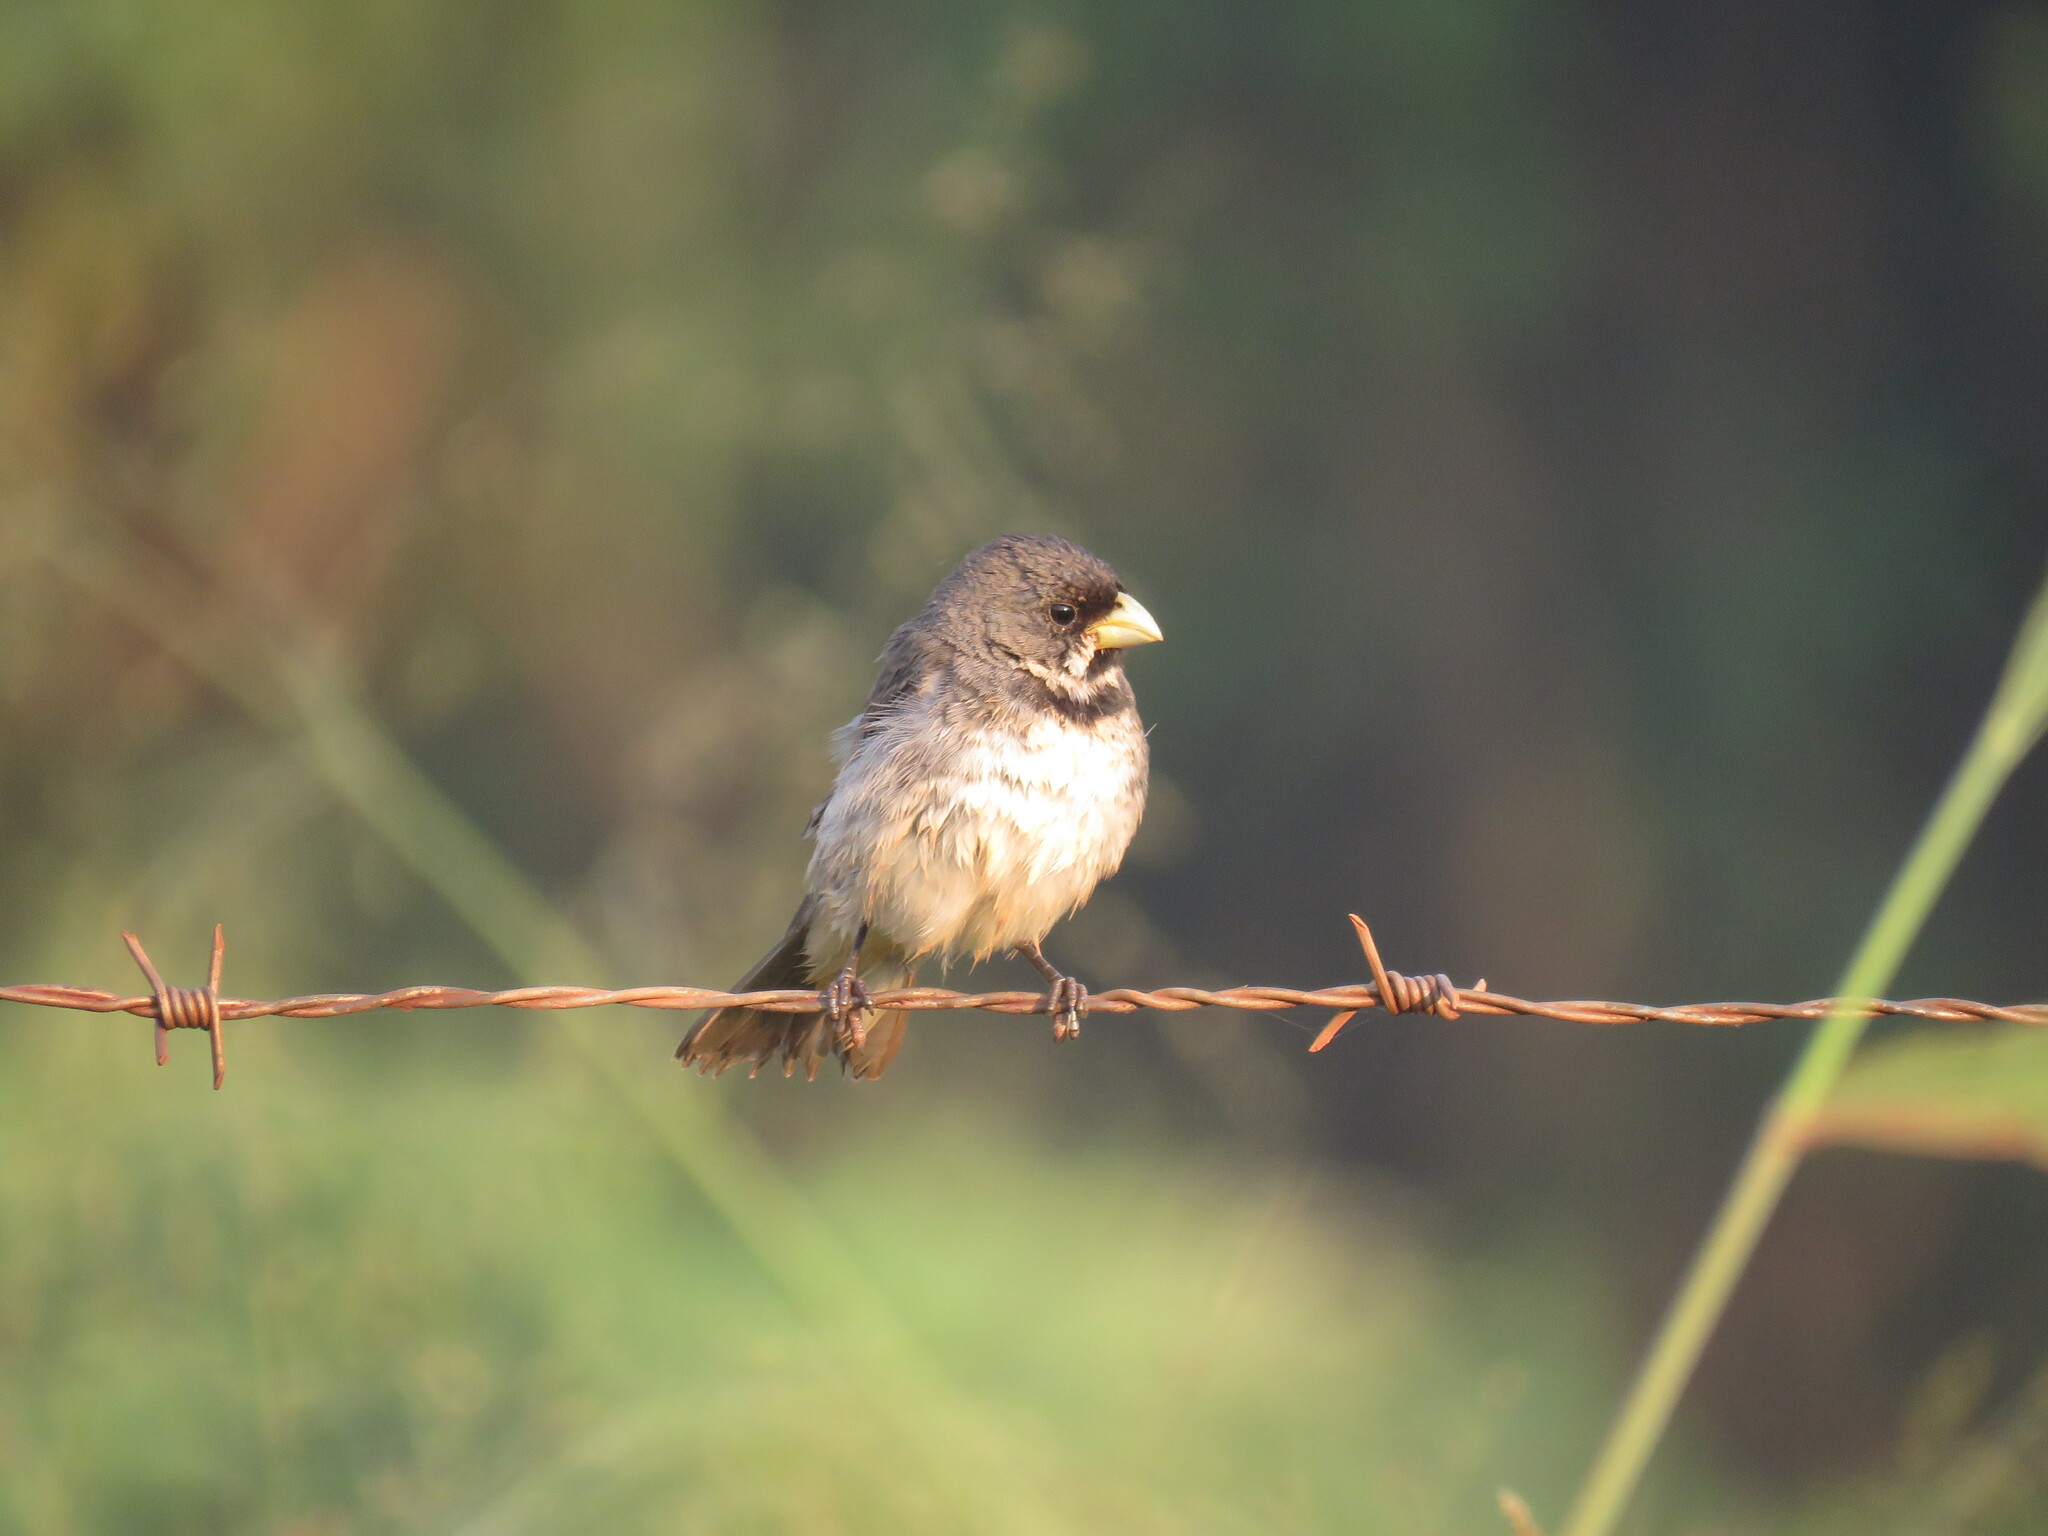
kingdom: Animalia
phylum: Chordata
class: Aves
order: Passeriformes
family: Thraupidae
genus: Sporophila
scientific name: Sporophila caerulescens
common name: Double-collared seedeater
